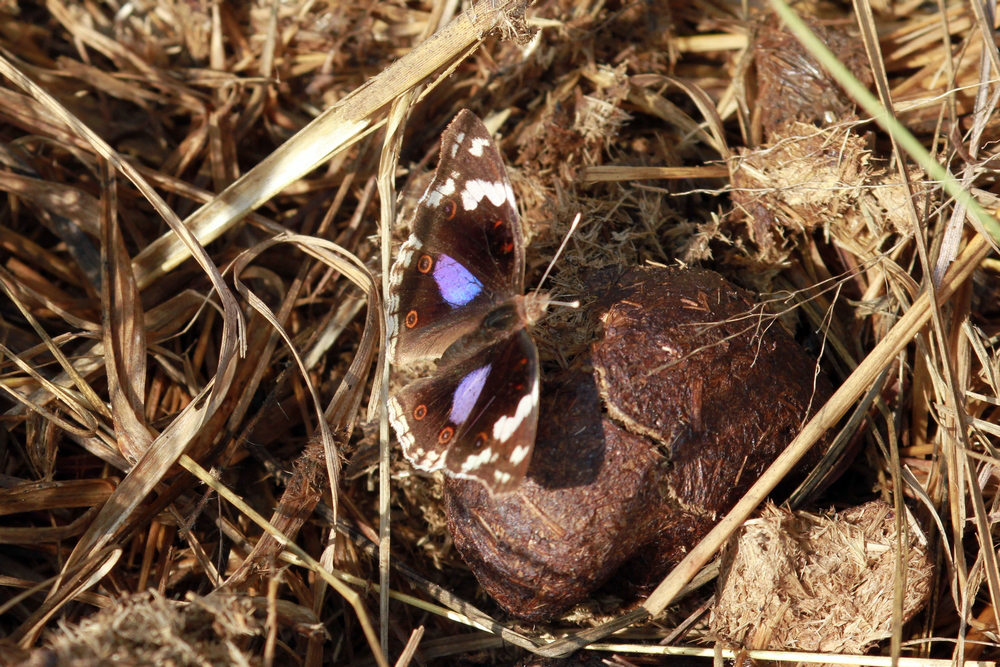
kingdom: Animalia
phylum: Arthropoda
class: Insecta
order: Lepidoptera
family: Nymphalidae
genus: Junonia
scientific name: Junonia oenone
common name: Dark blue pansy
